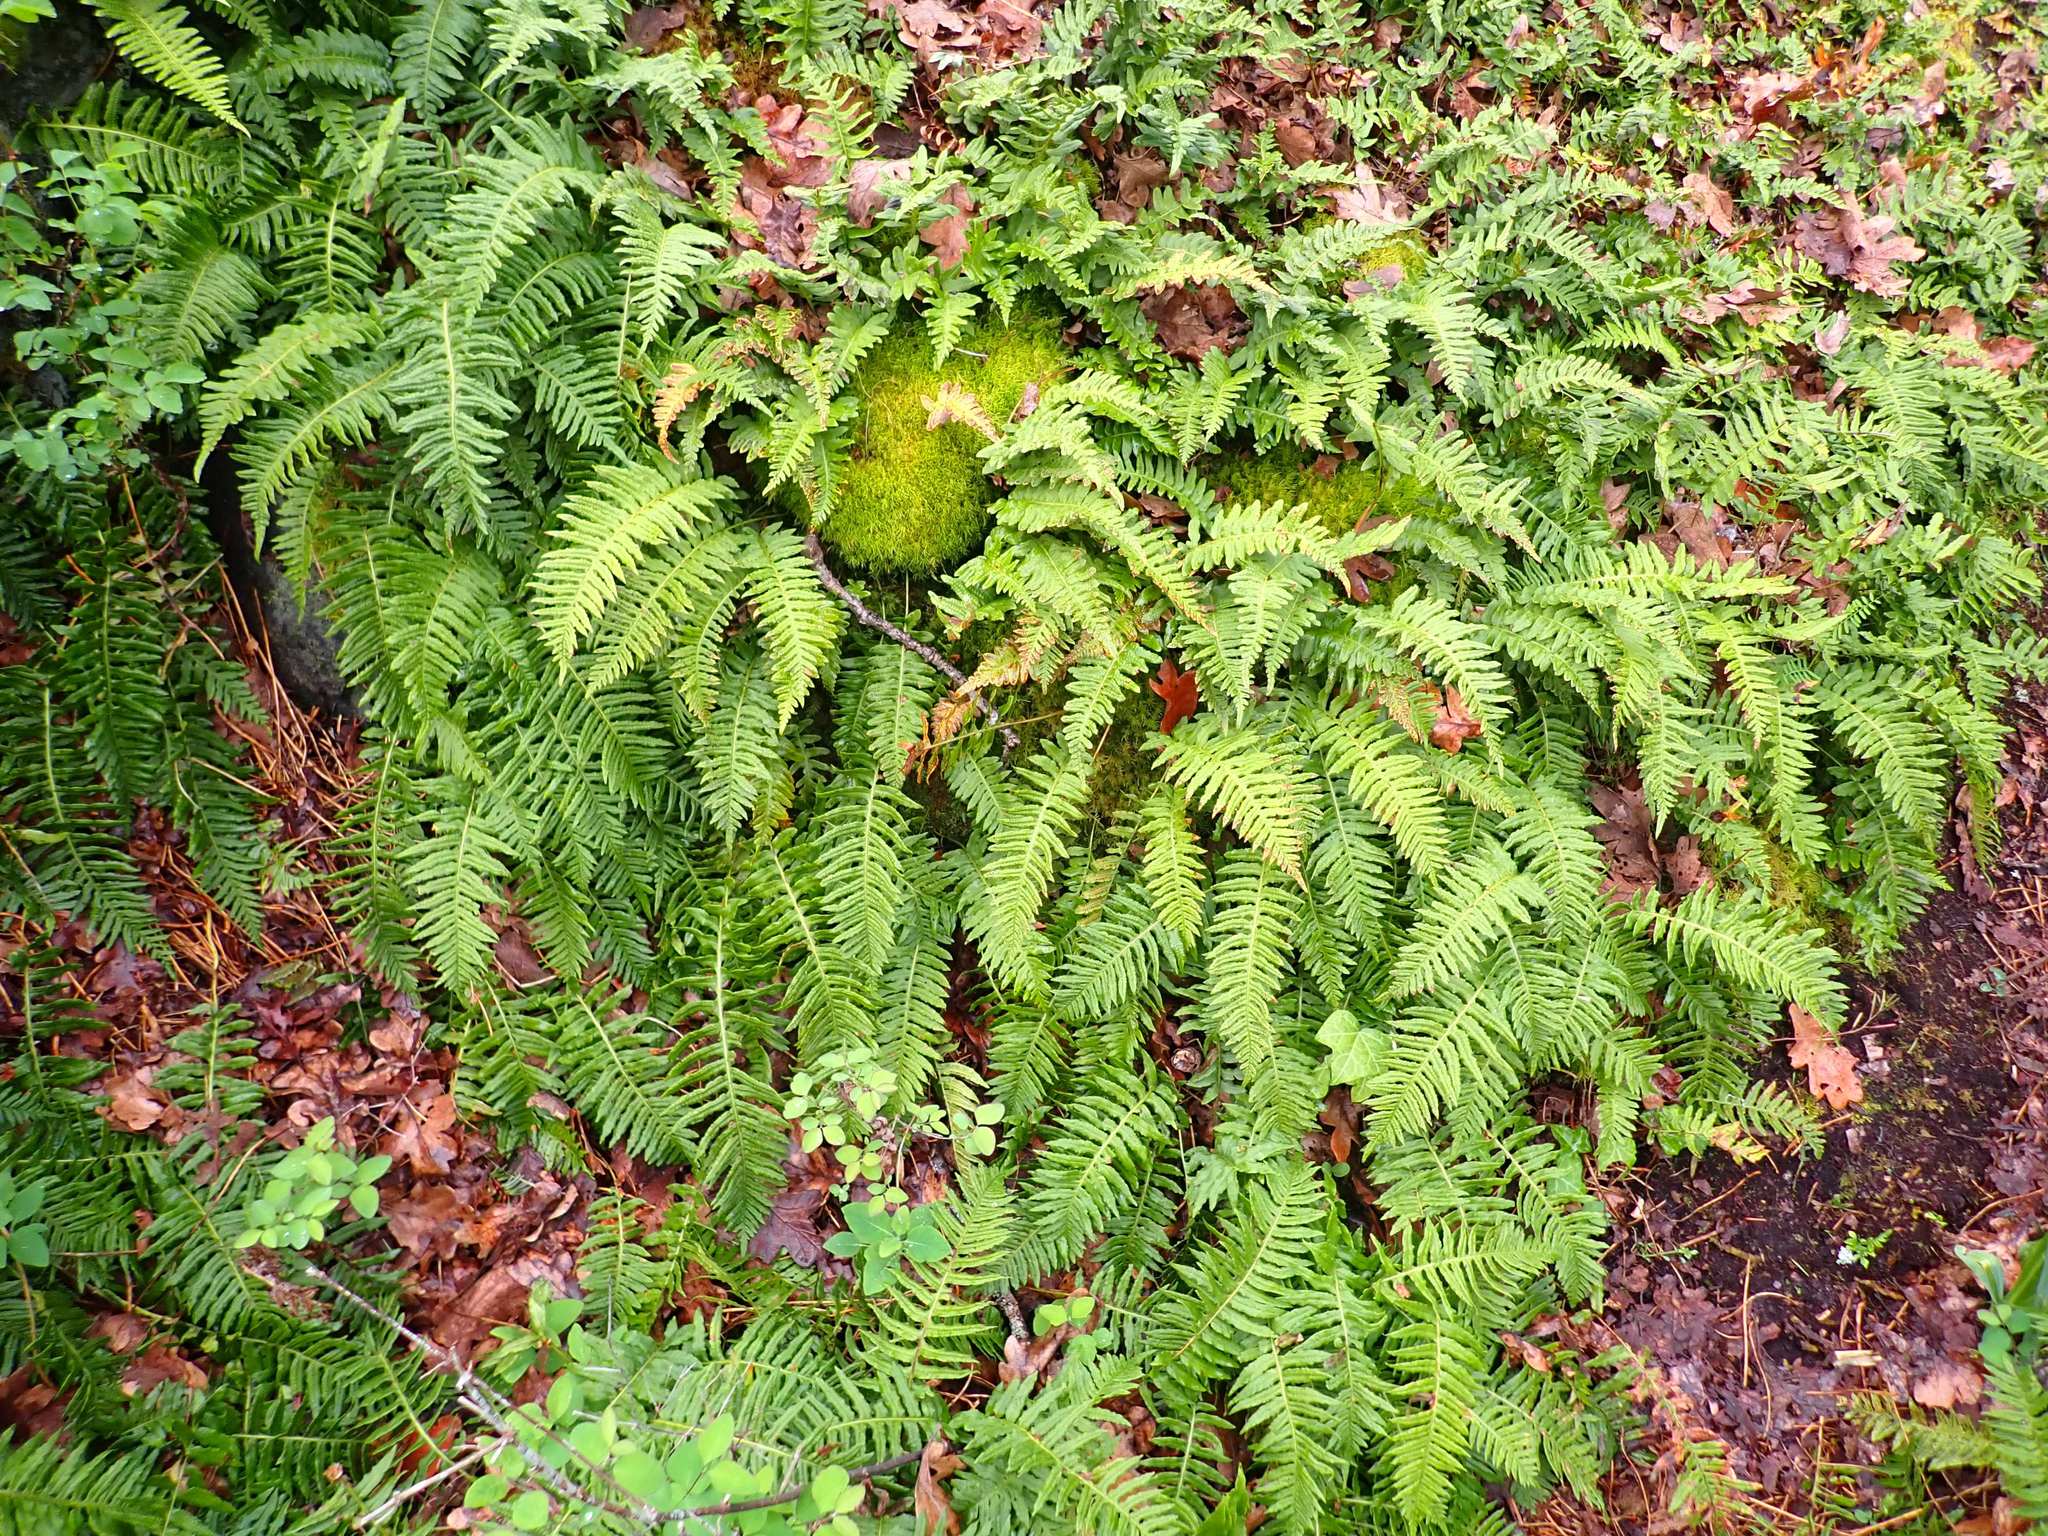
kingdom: Plantae
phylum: Tracheophyta
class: Polypodiopsida
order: Polypodiales
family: Polypodiaceae
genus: Polypodium
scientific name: Polypodium glycyrrhiza
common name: Licorice fern
